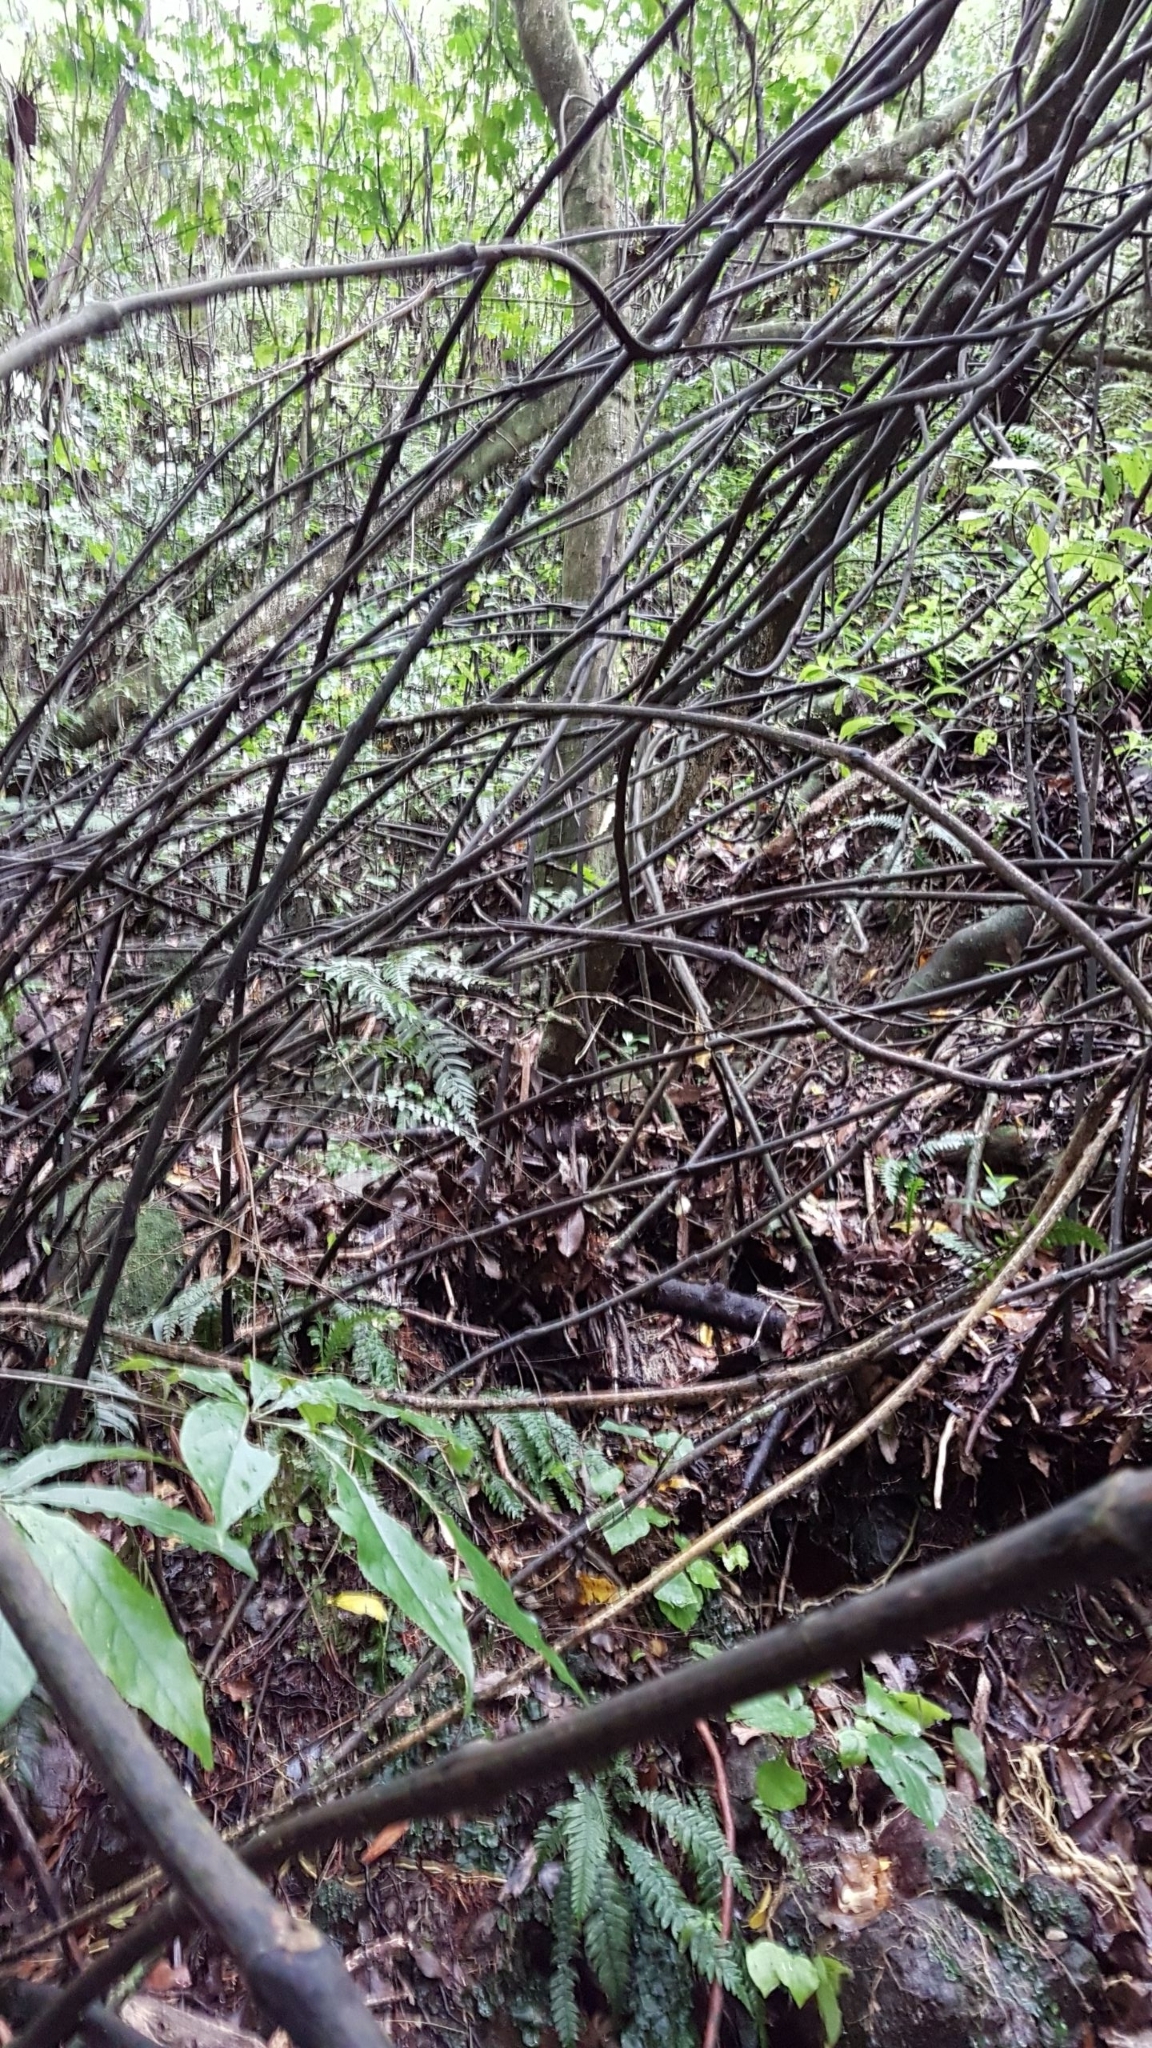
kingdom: Plantae
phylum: Tracheophyta
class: Liliopsida
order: Liliales
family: Ripogonaceae
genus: Ripogonum
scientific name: Ripogonum scandens
